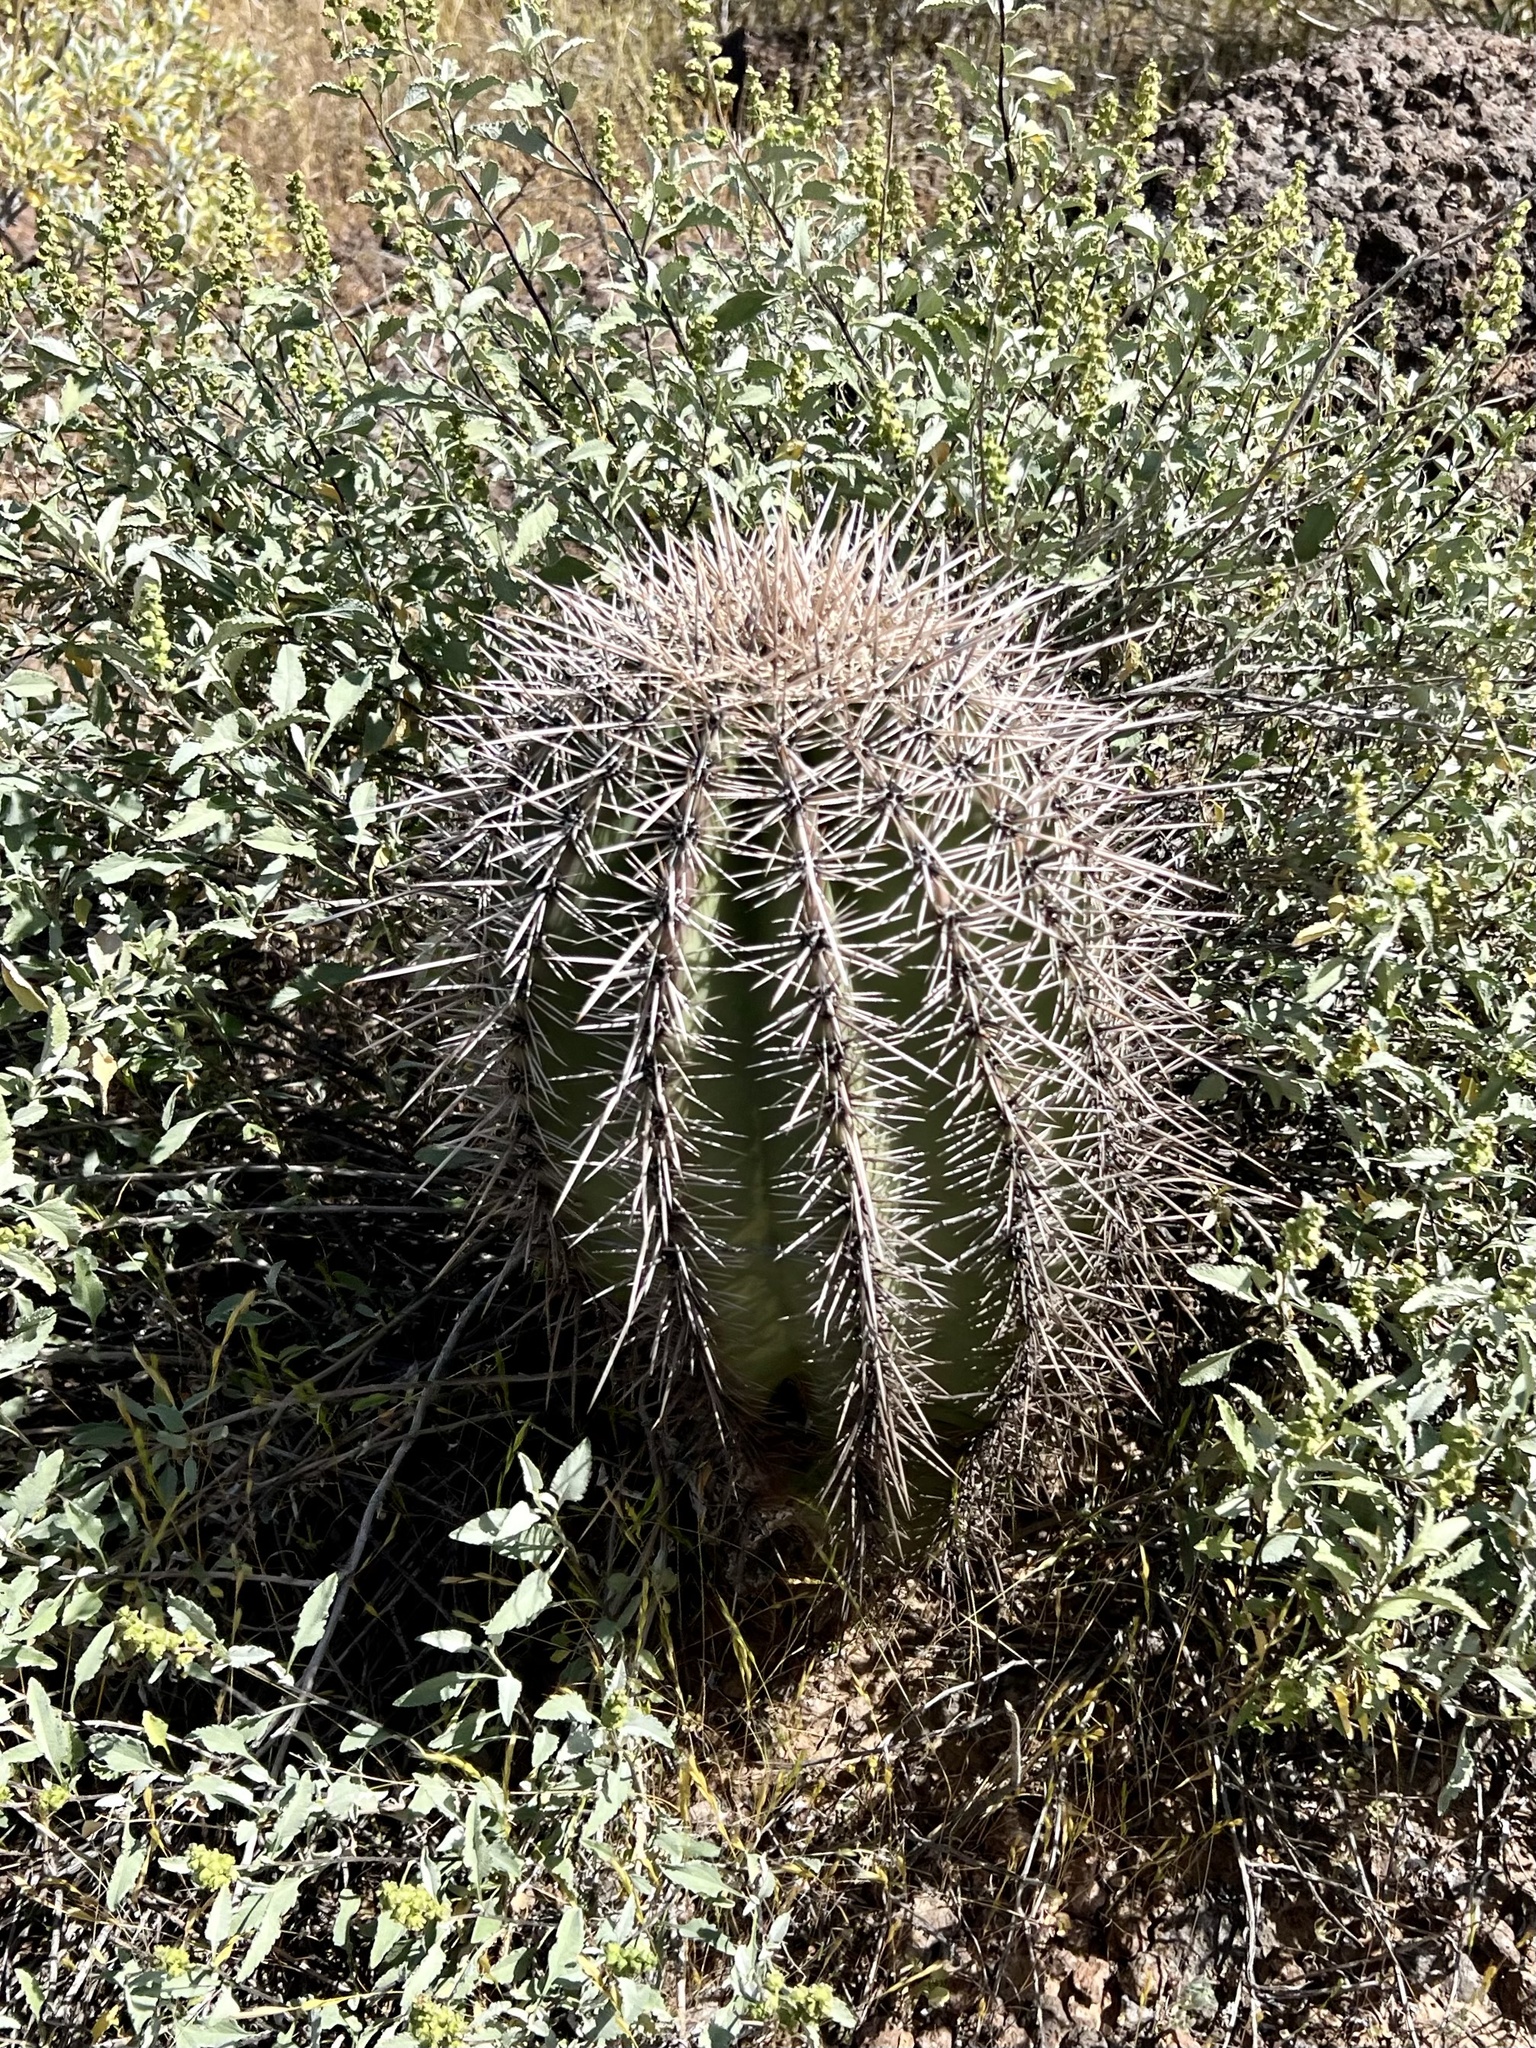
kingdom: Plantae
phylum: Tracheophyta
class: Magnoliopsida
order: Caryophyllales
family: Cactaceae
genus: Carnegiea
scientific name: Carnegiea gigantea
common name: Saguaro
